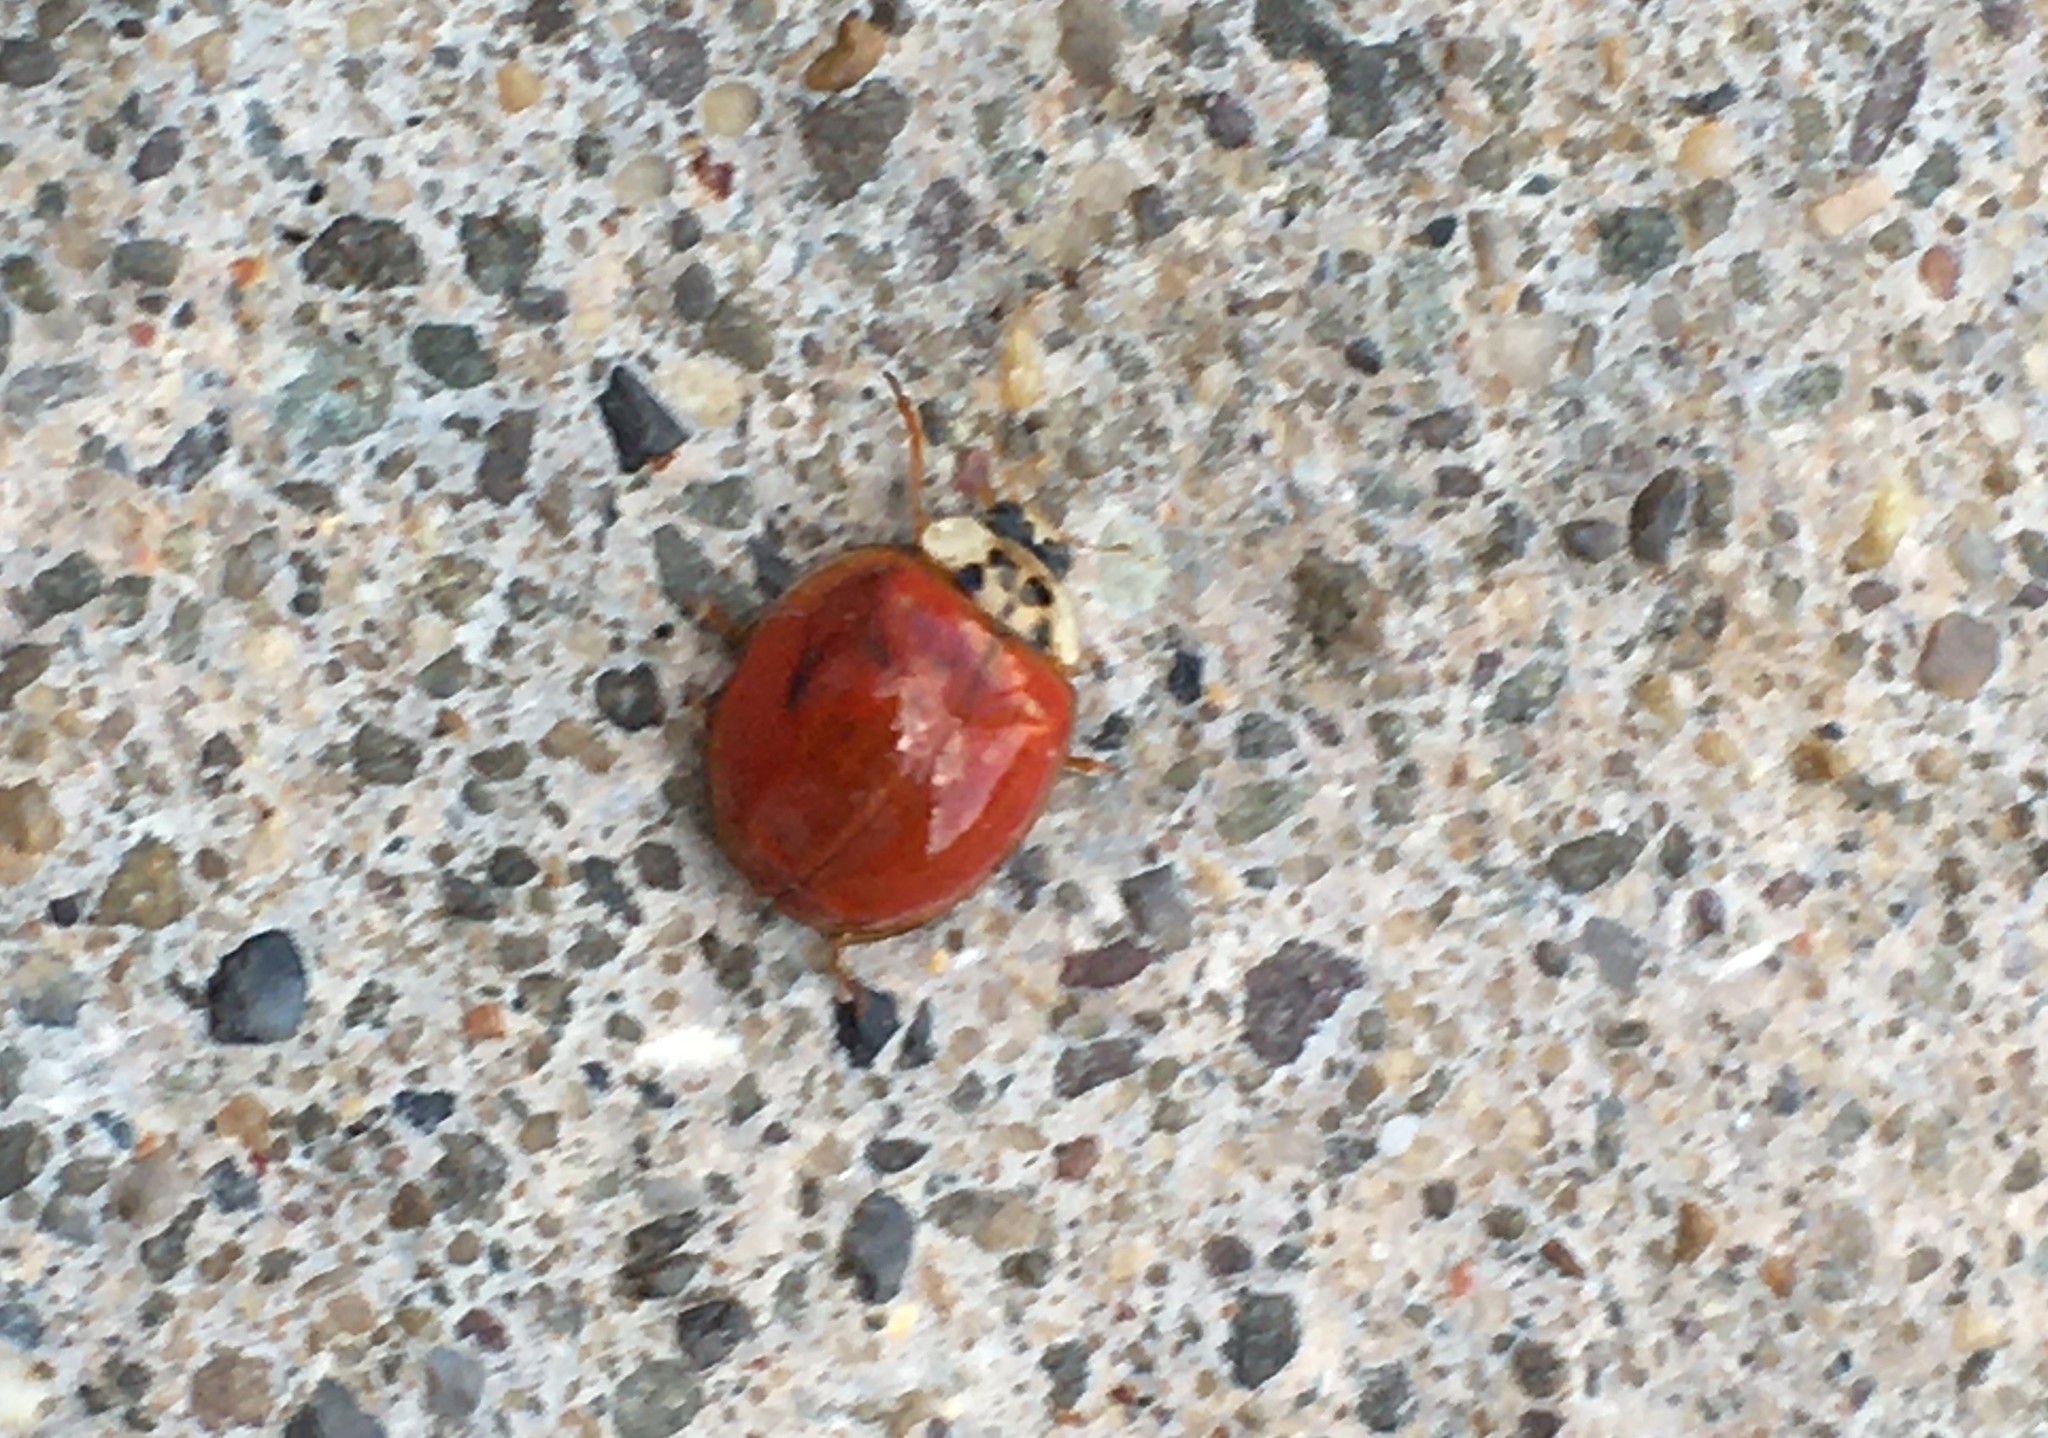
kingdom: Animalia
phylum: Arthropoda
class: Insecta
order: Coleoptera
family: Coccinellidae
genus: Harmonia
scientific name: Harmonia axyridis
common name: Harlequin ladybird
